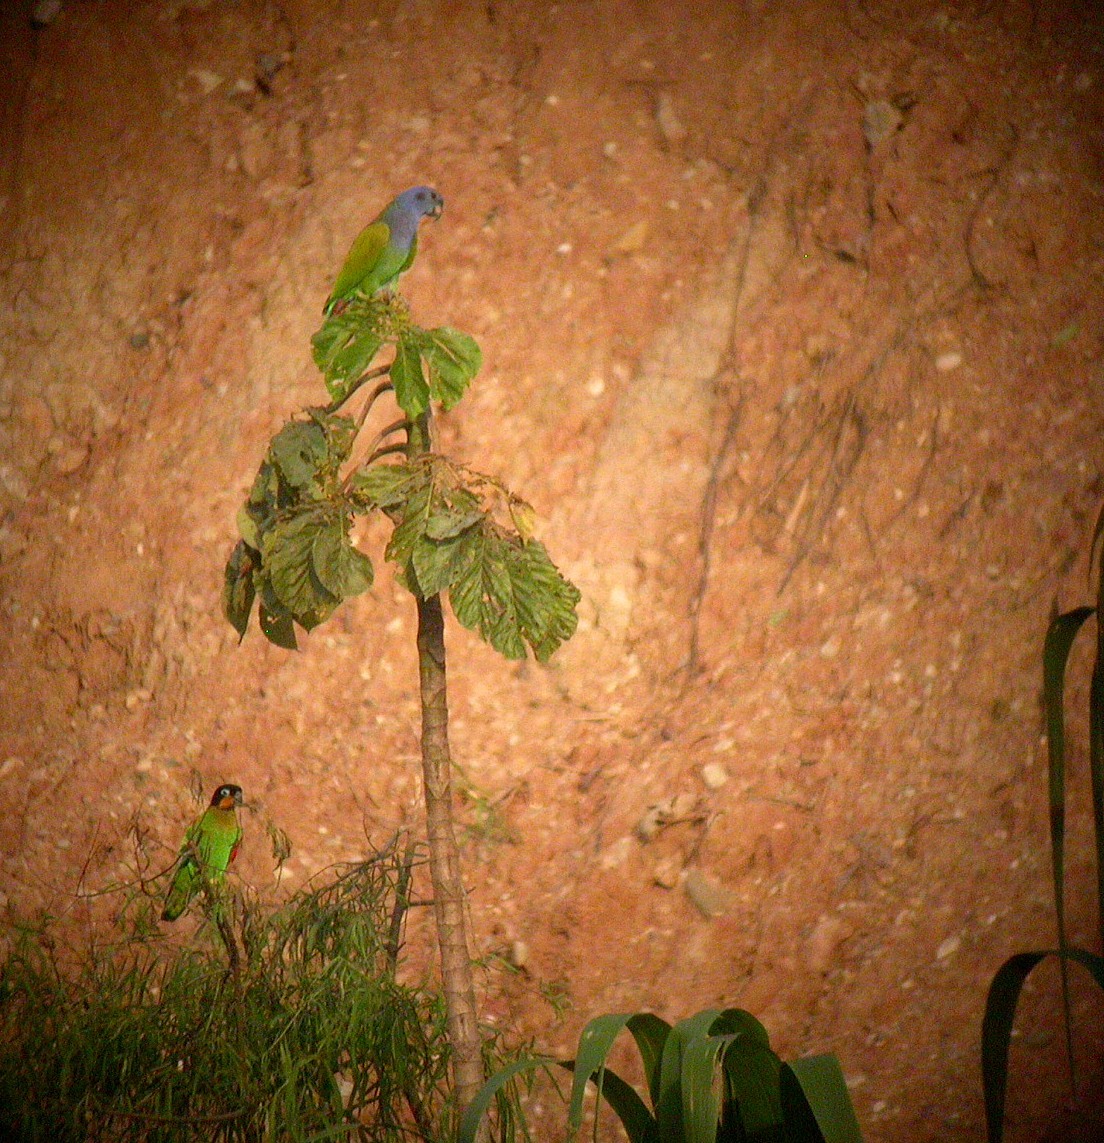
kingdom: Animalia
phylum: Chordata
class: Aves
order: Psittaciformes
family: Psittacidae
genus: Pionopsitta
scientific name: Pionopsitta barrabandi
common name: Orange-cheeked parrot
